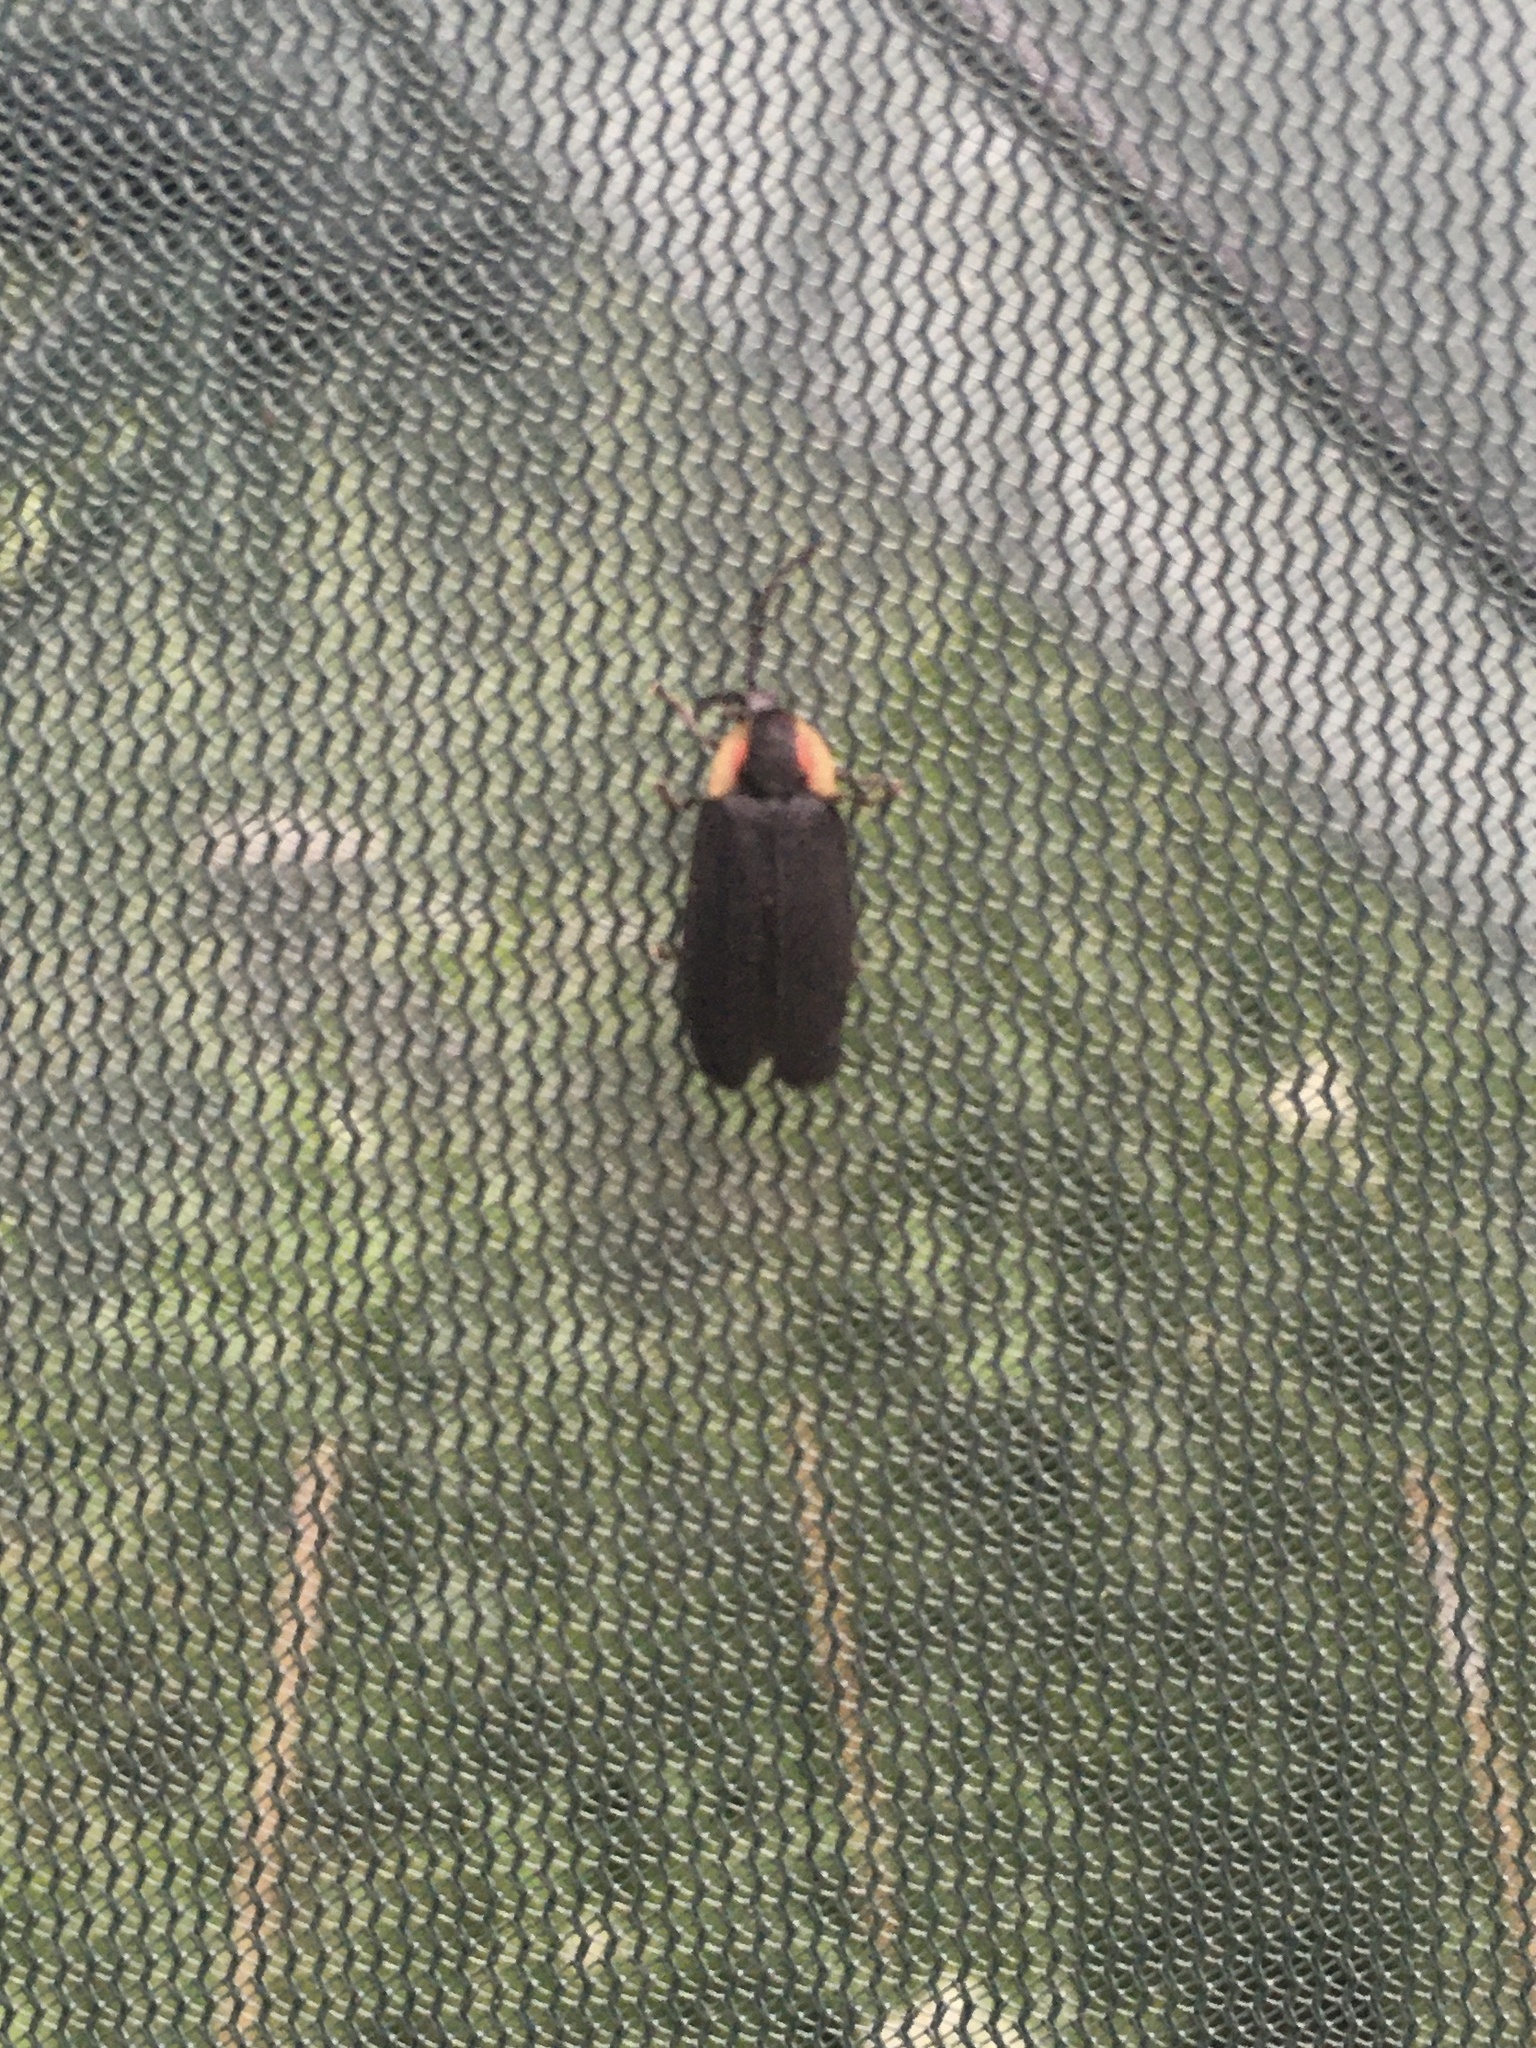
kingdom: Animalia
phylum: Arthropoda
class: Insecta
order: Coleoptera
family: Lampyridae
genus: Lucidota
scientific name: Lucidota atra
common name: Black firefly
